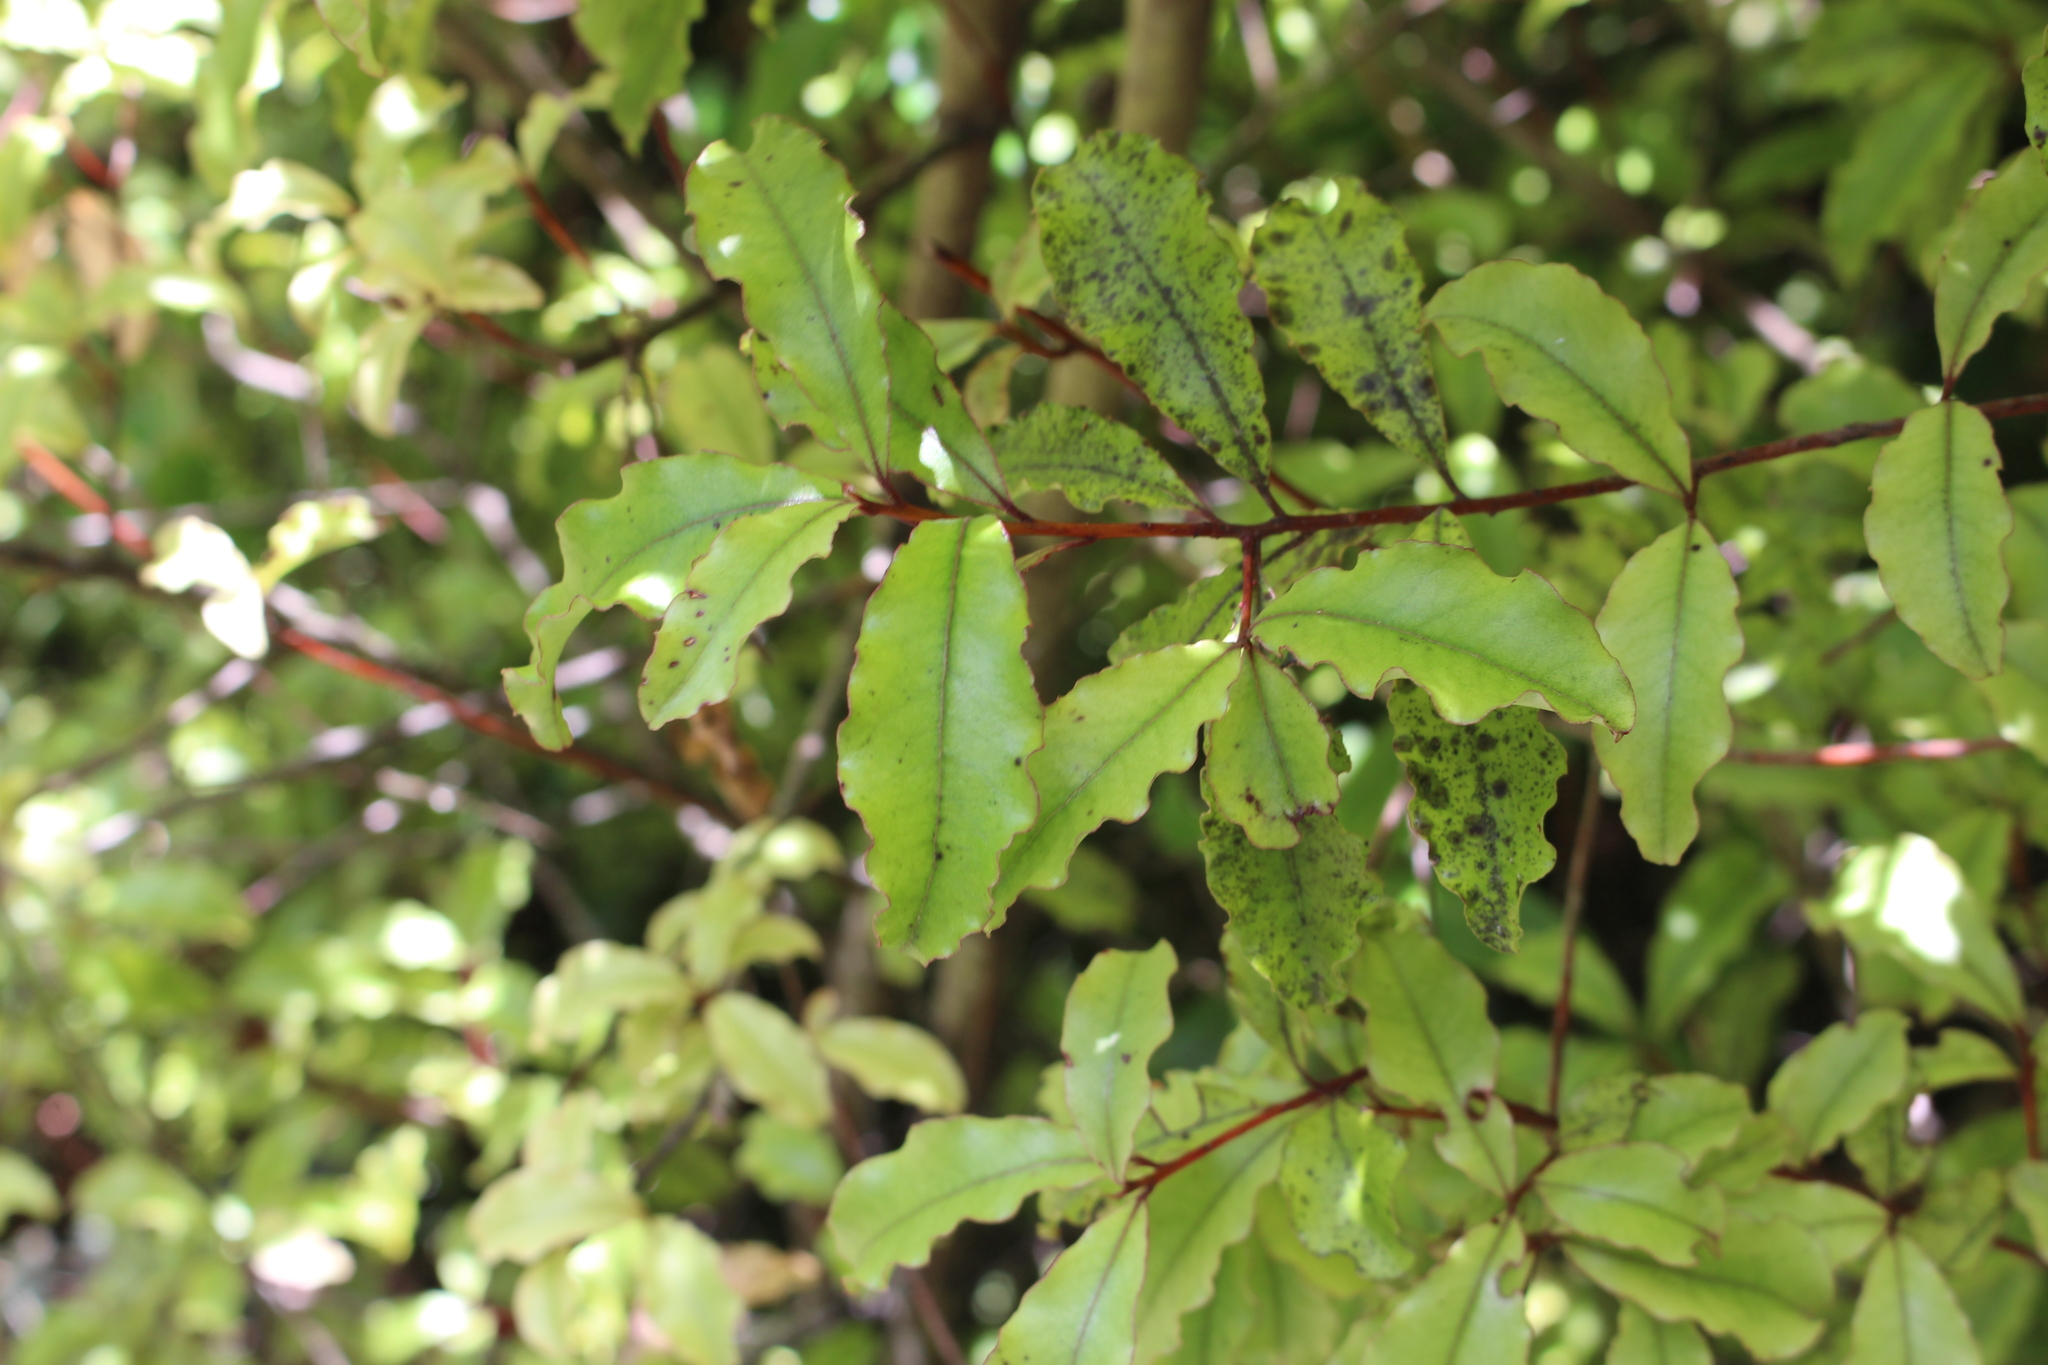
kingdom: Plantae
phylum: Tracheophyta
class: Magnoliopsida
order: Ericales
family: Primulaceae
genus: Myrsine
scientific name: Myrsine australis
